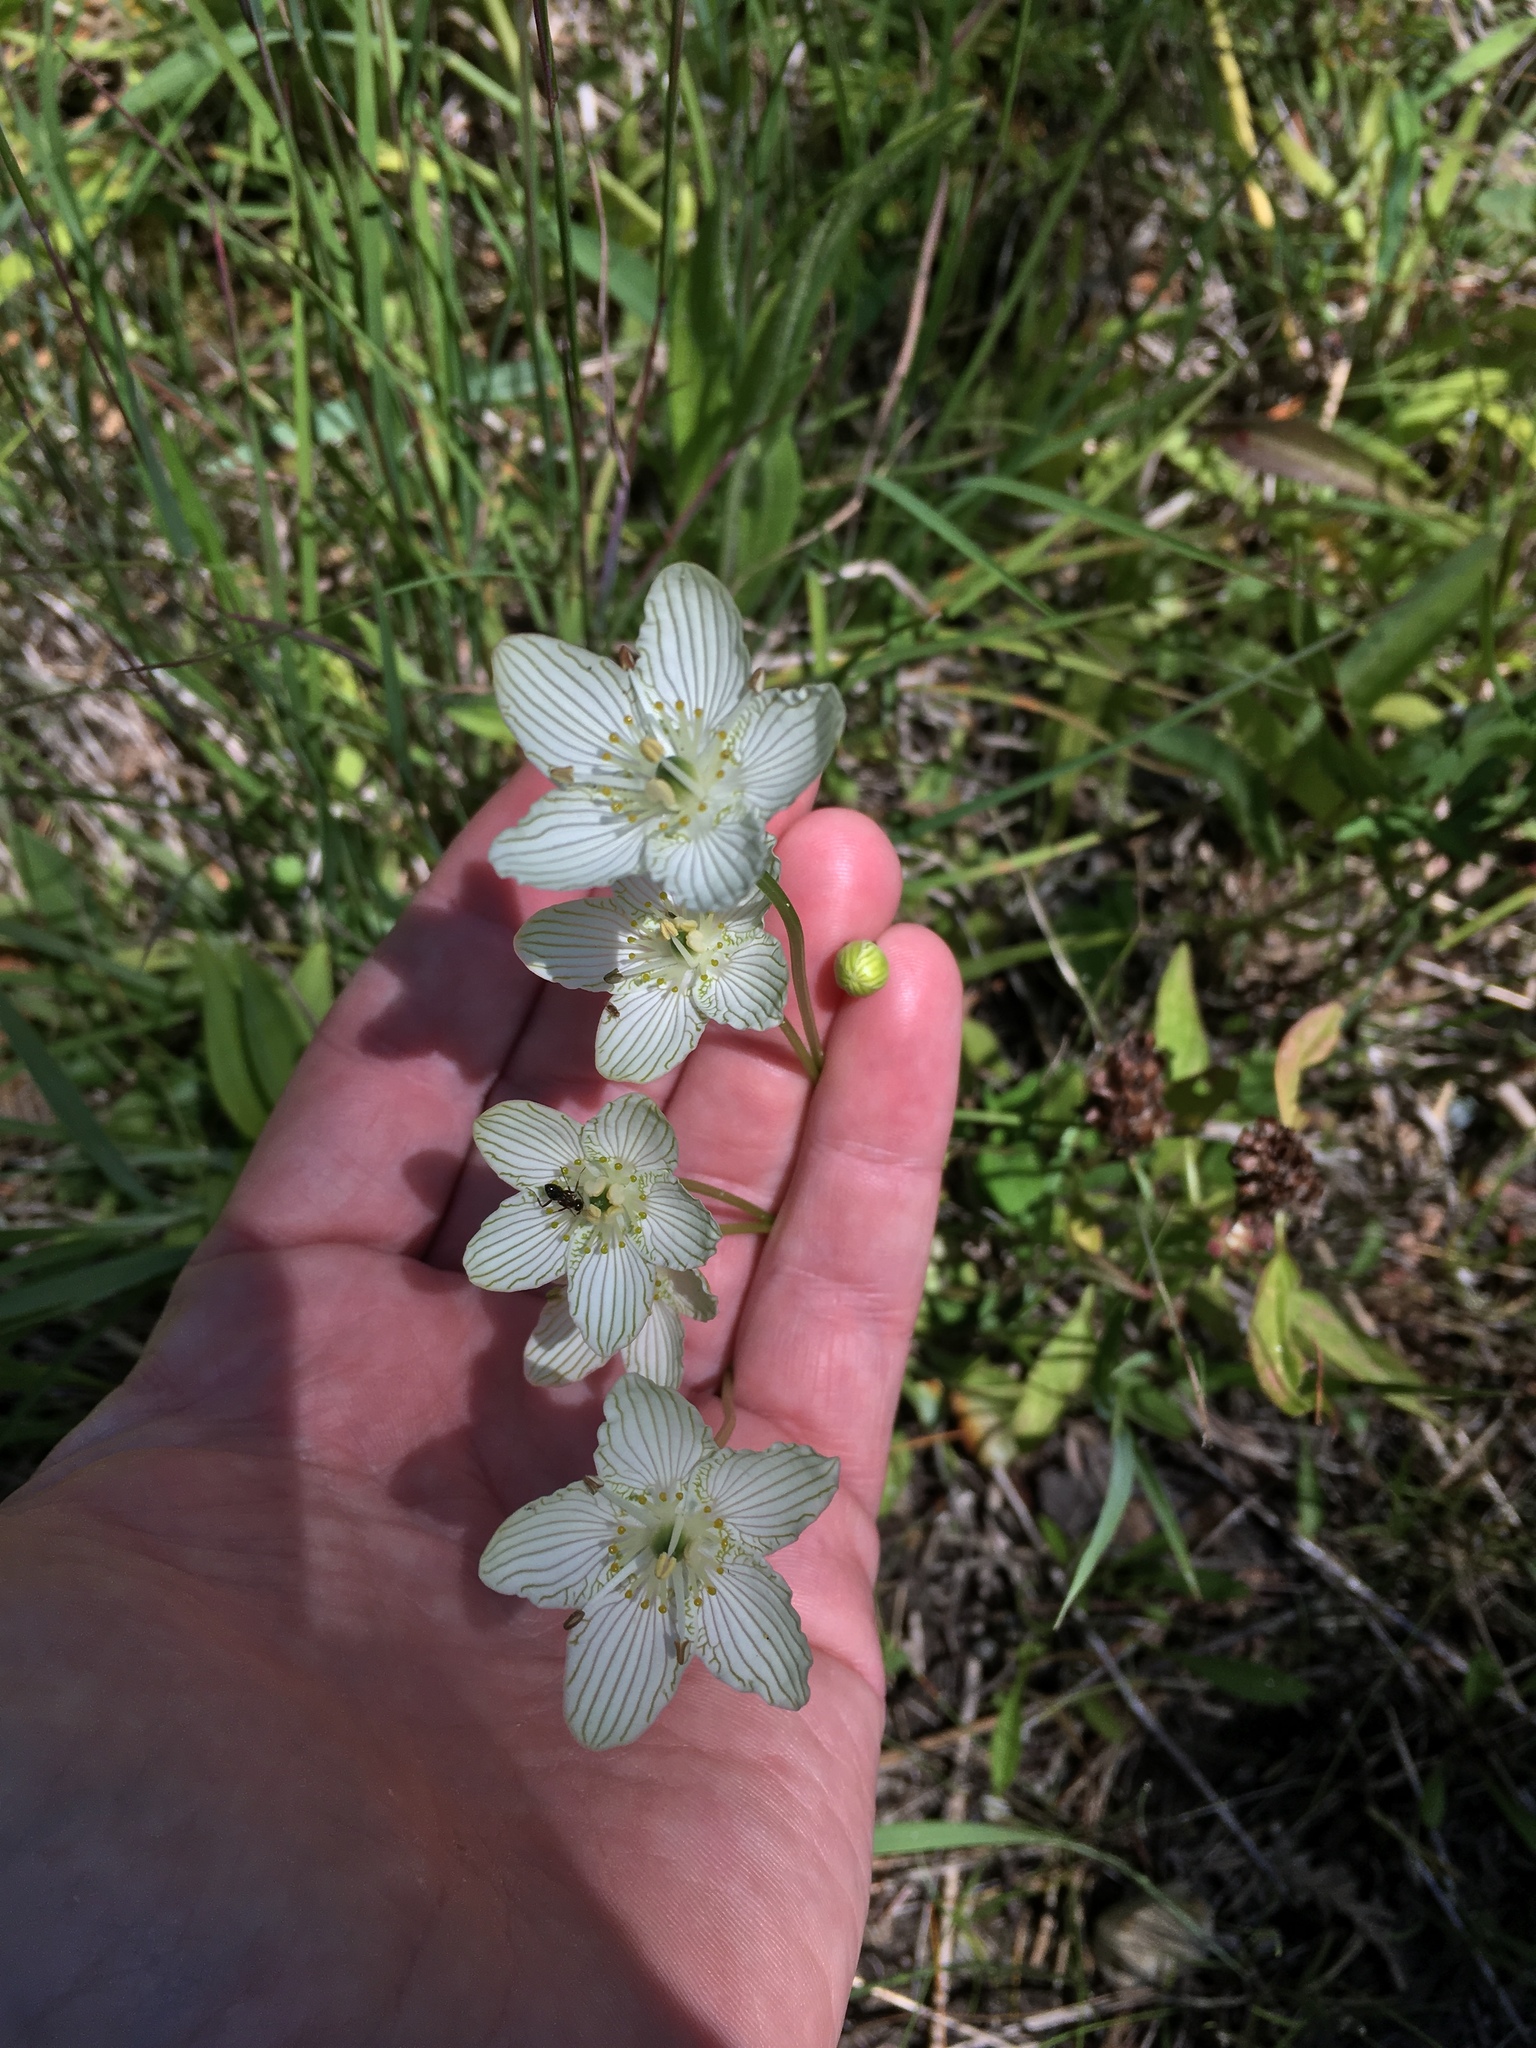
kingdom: Plantae
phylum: Tracheophyta
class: Magnoliopsida
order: Celastrales
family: Parnassiaceae
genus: Parnassia
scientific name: Parnassia glauca
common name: American grass-of-parnassus
